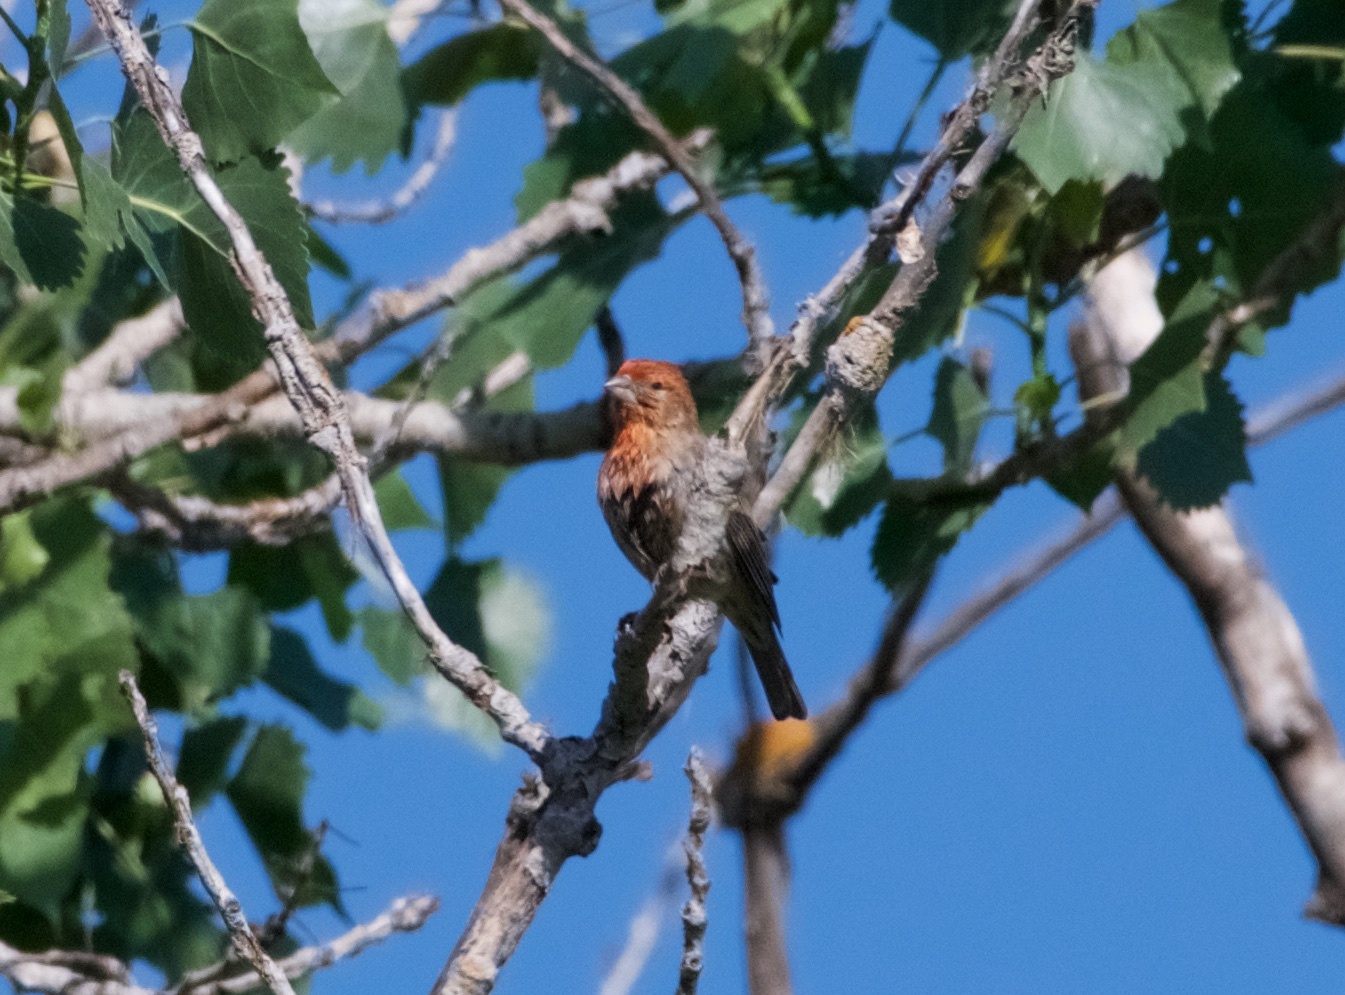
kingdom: Animalia
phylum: Chordata
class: Aves
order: Passeriformes
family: Fringillidae
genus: Haemorhous
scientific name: Haemorhous mexicanus
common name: House finch
